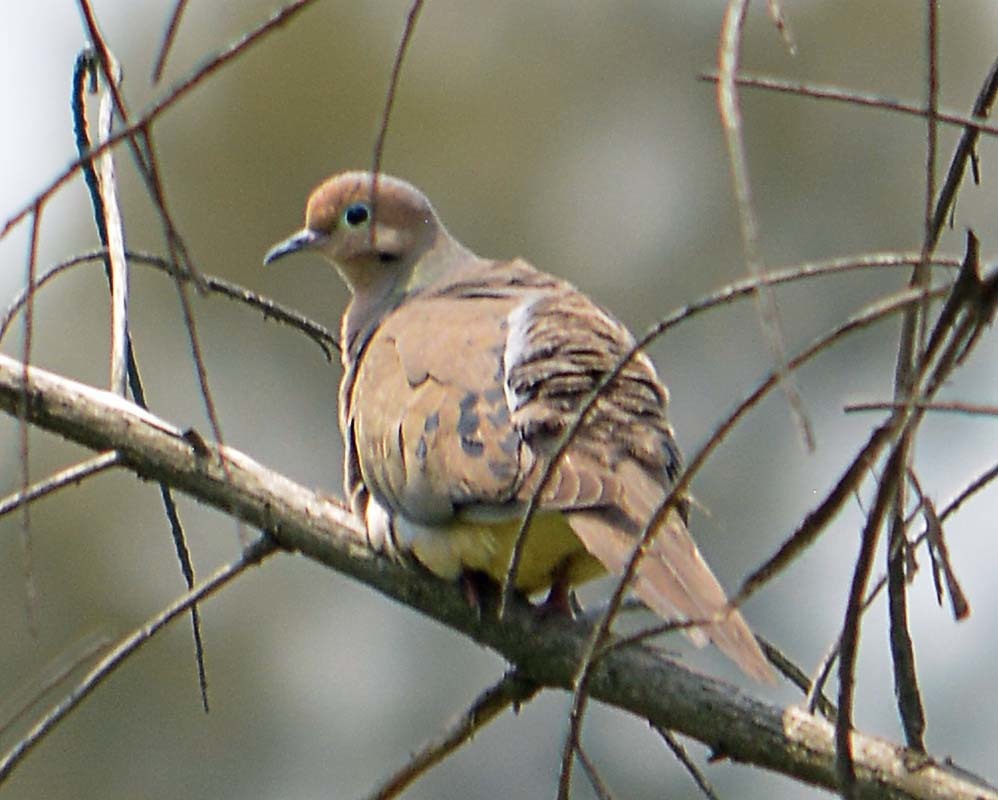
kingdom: Animalia
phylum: Chordata
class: Aves
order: Columbiformes
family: Columbidae
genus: Zenaida
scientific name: Zenaida macroura
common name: Mourning dove
